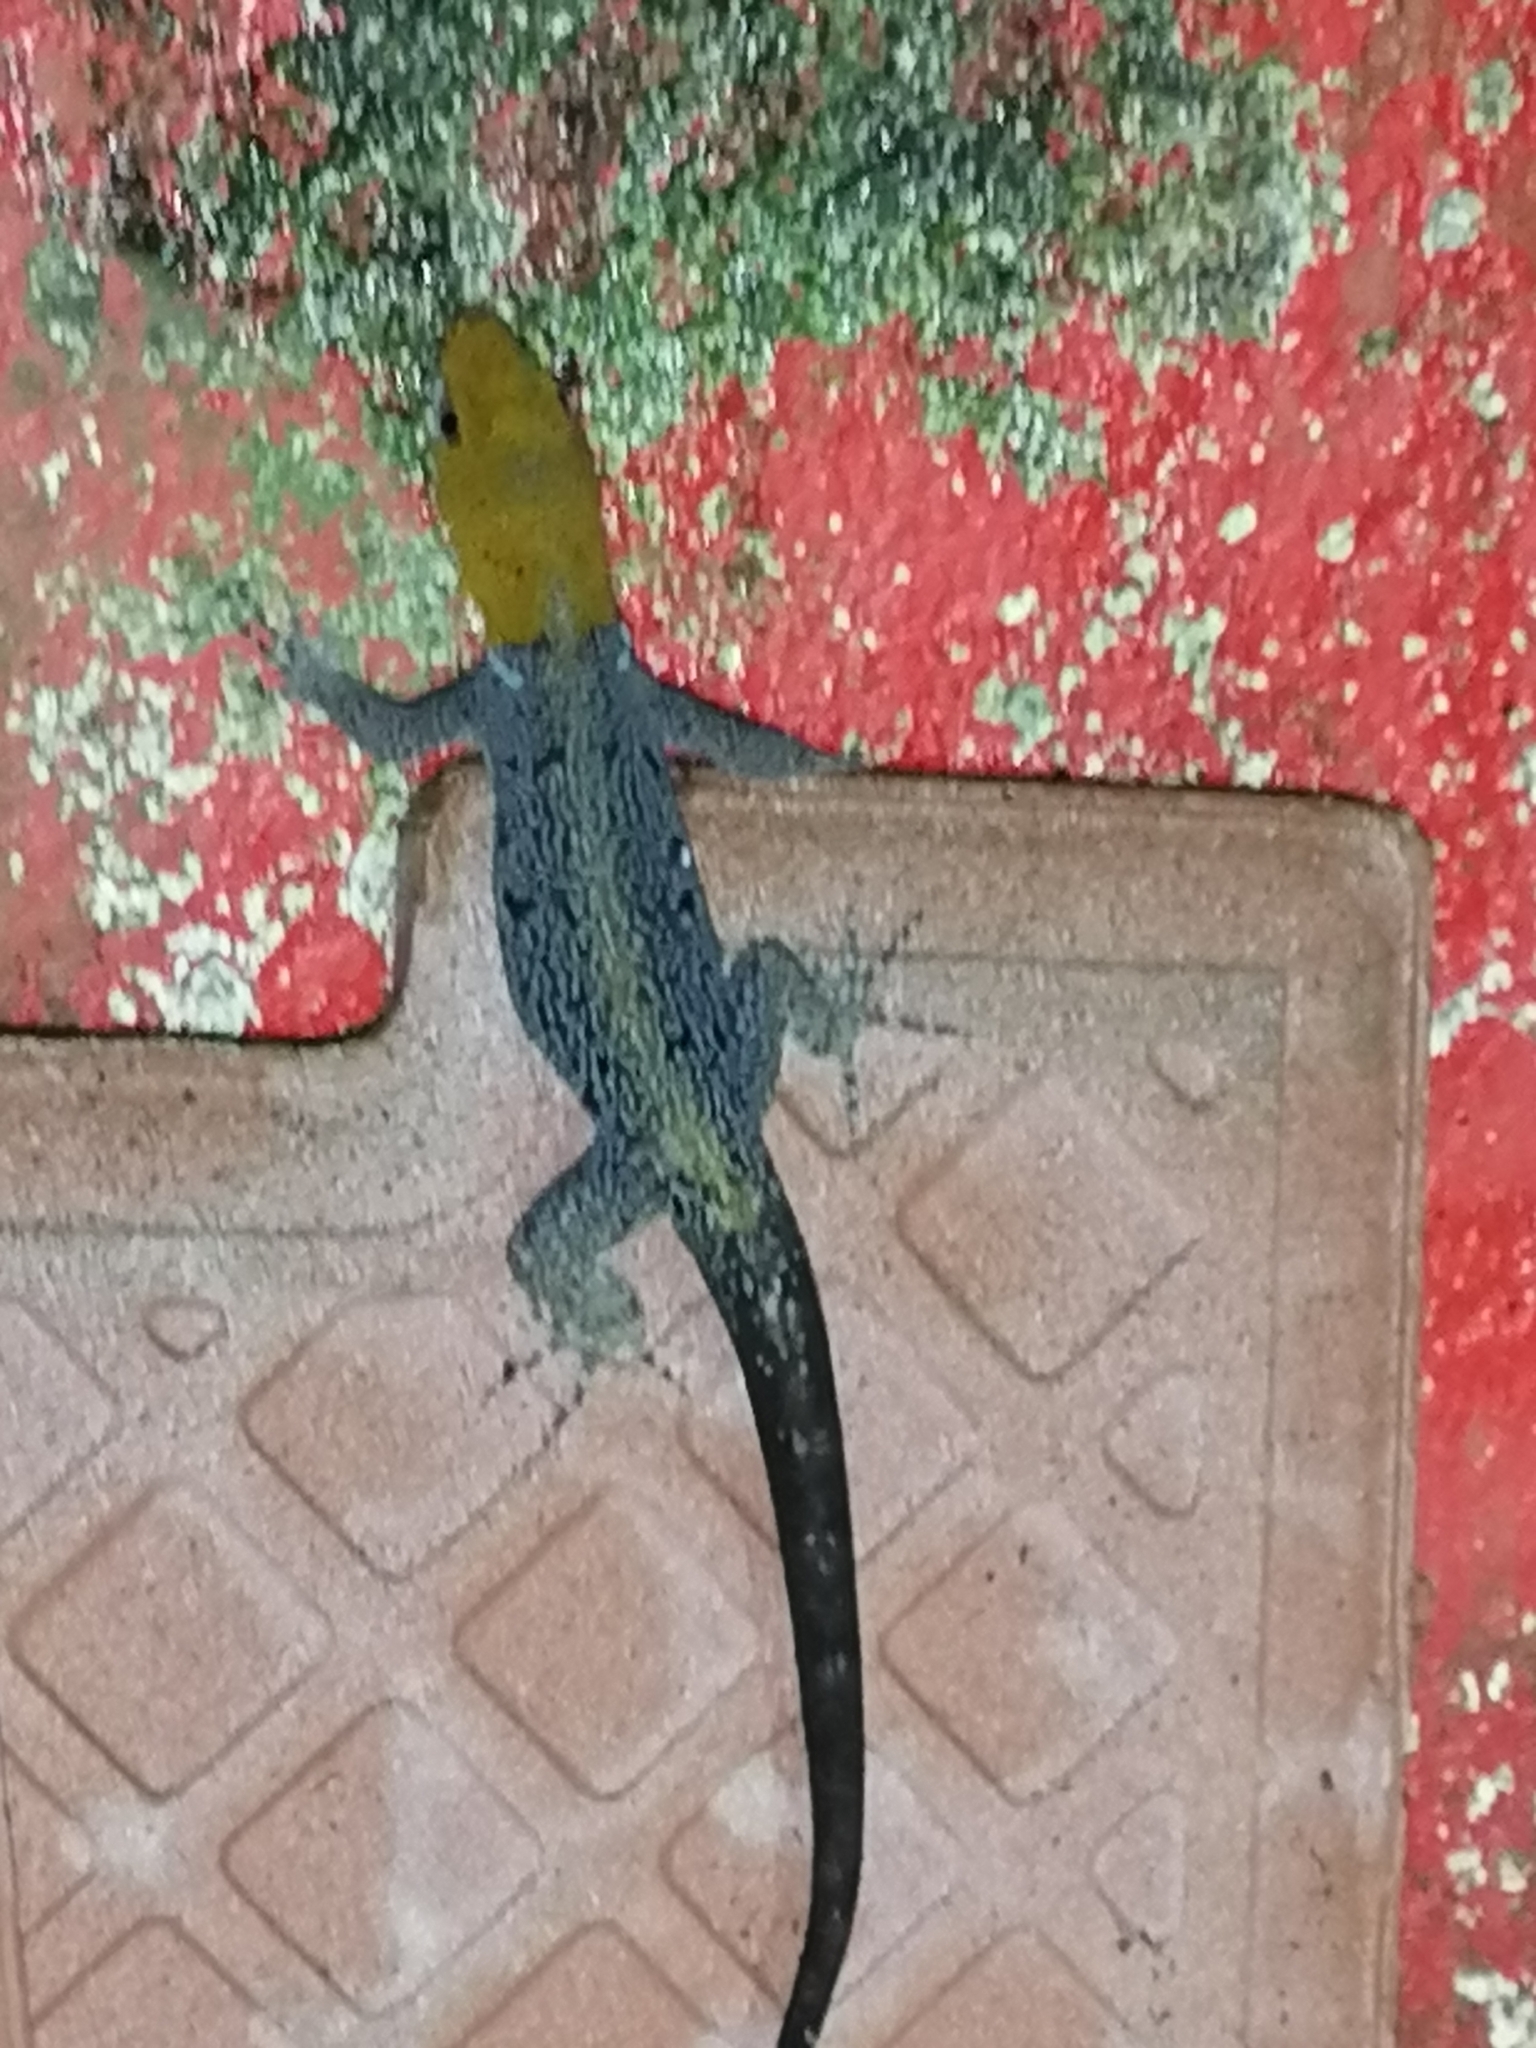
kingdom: Animalia
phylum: Chordata
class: Squamata
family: Sphaerodactylidae
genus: Gonatodes
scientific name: Gonatodes albogularis
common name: Yellow-headed gecko
